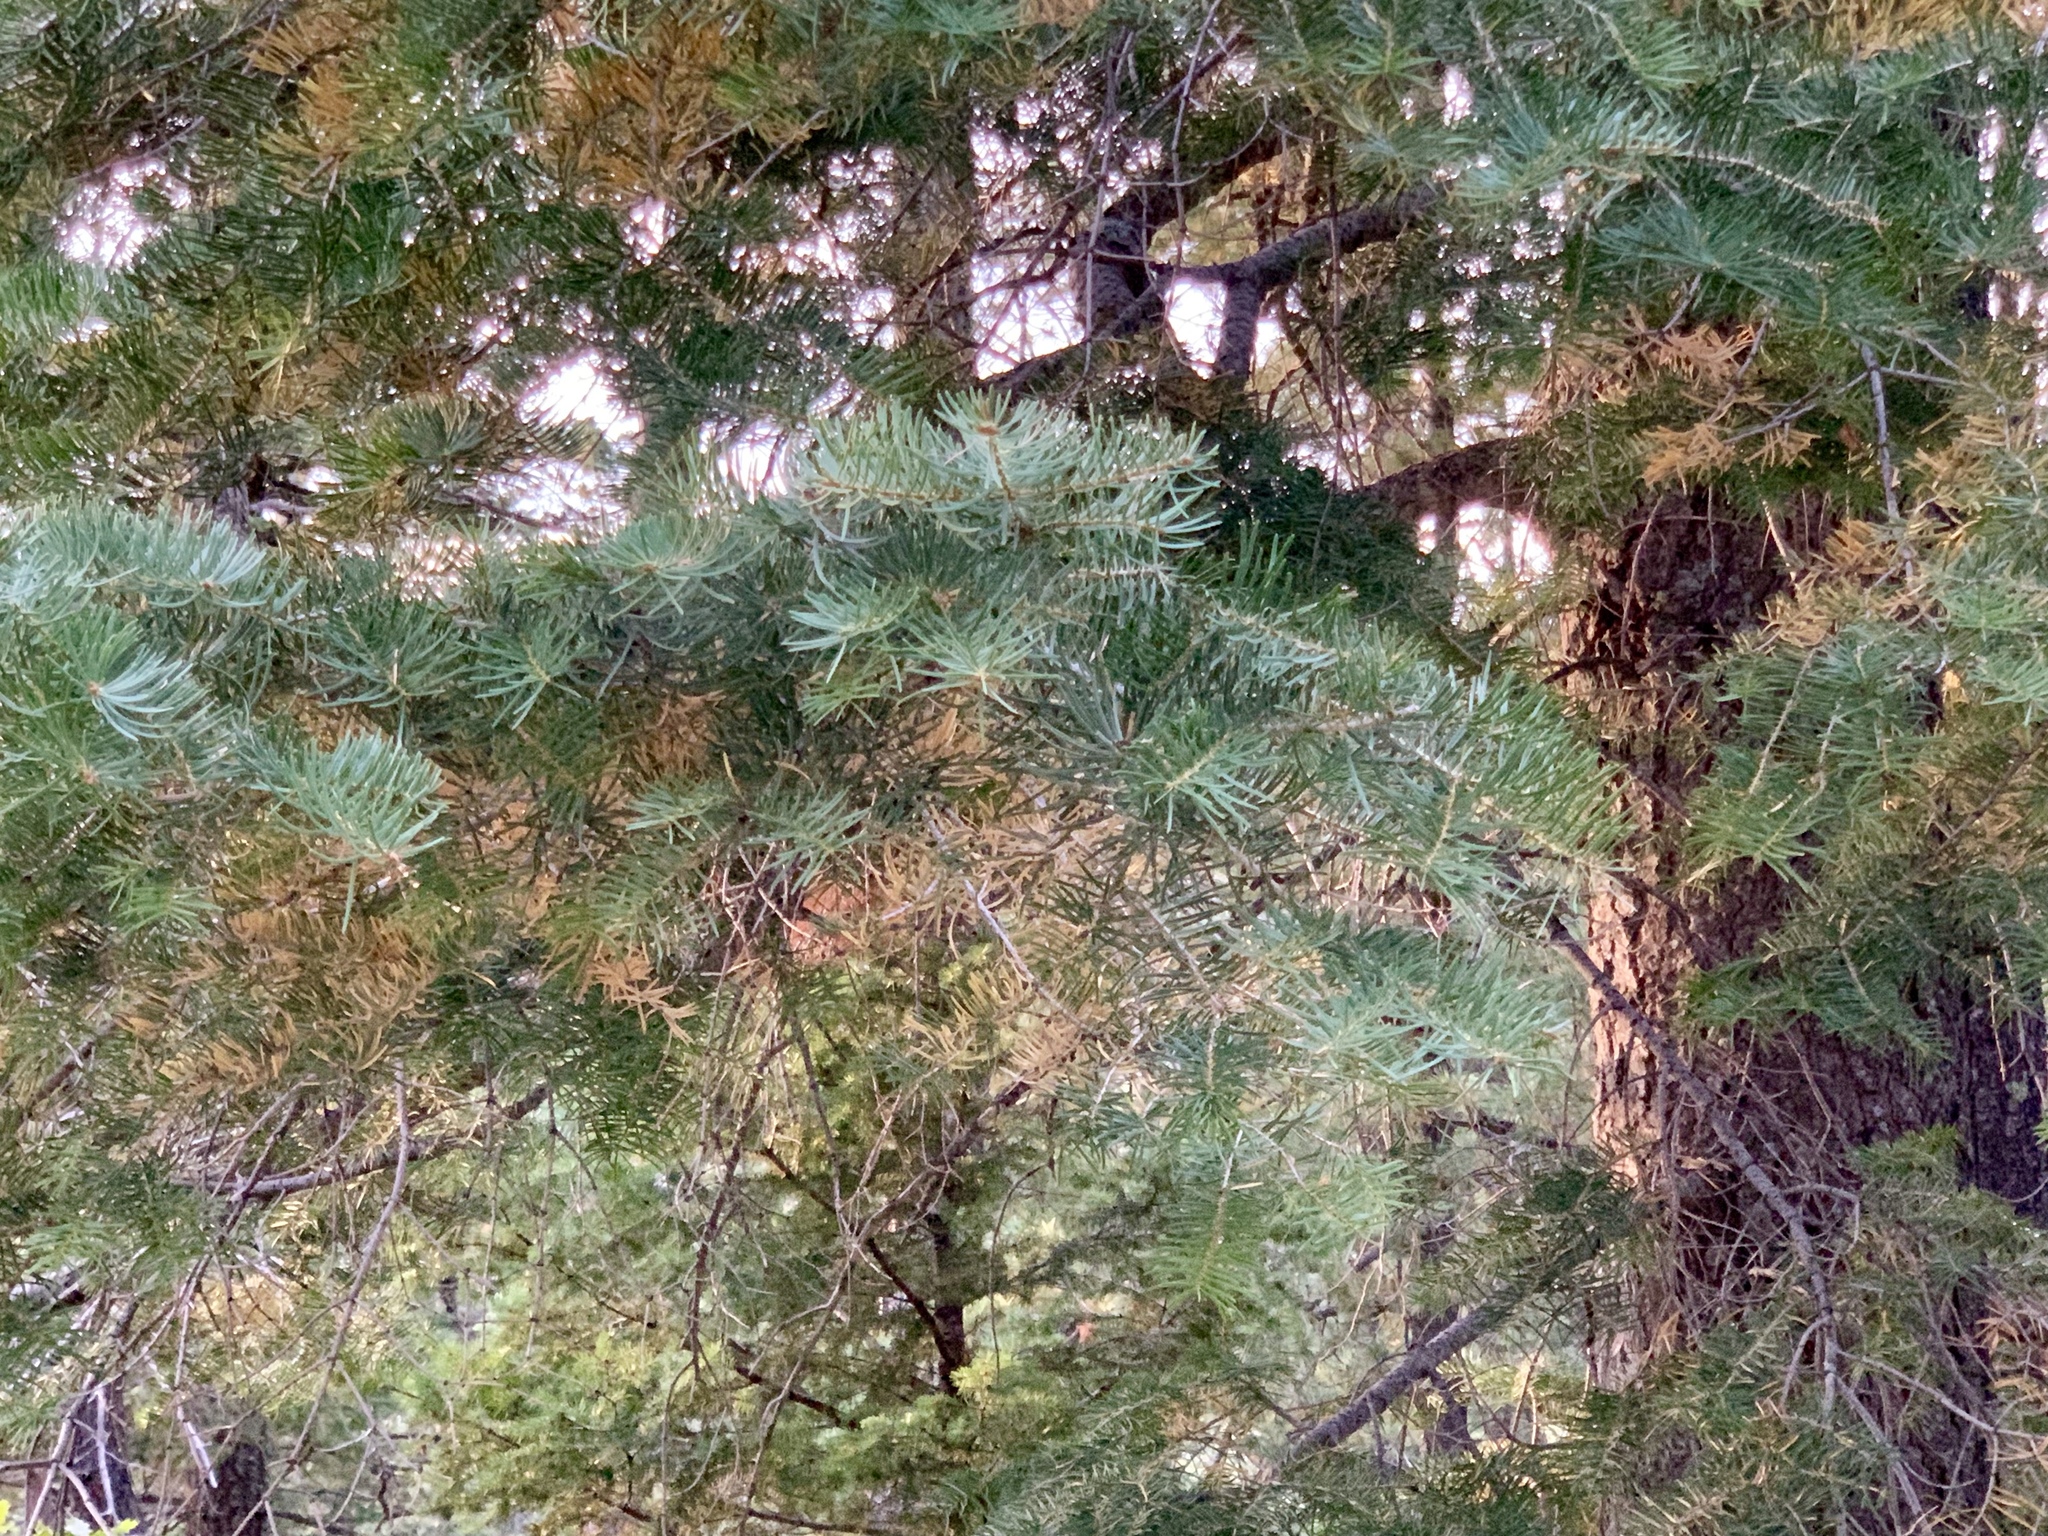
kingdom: Plantae
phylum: Tracheophyta
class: Pinopsida
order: Pinales
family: Pinaceae
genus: Abies
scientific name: Abies concolor
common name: Colorado fir
